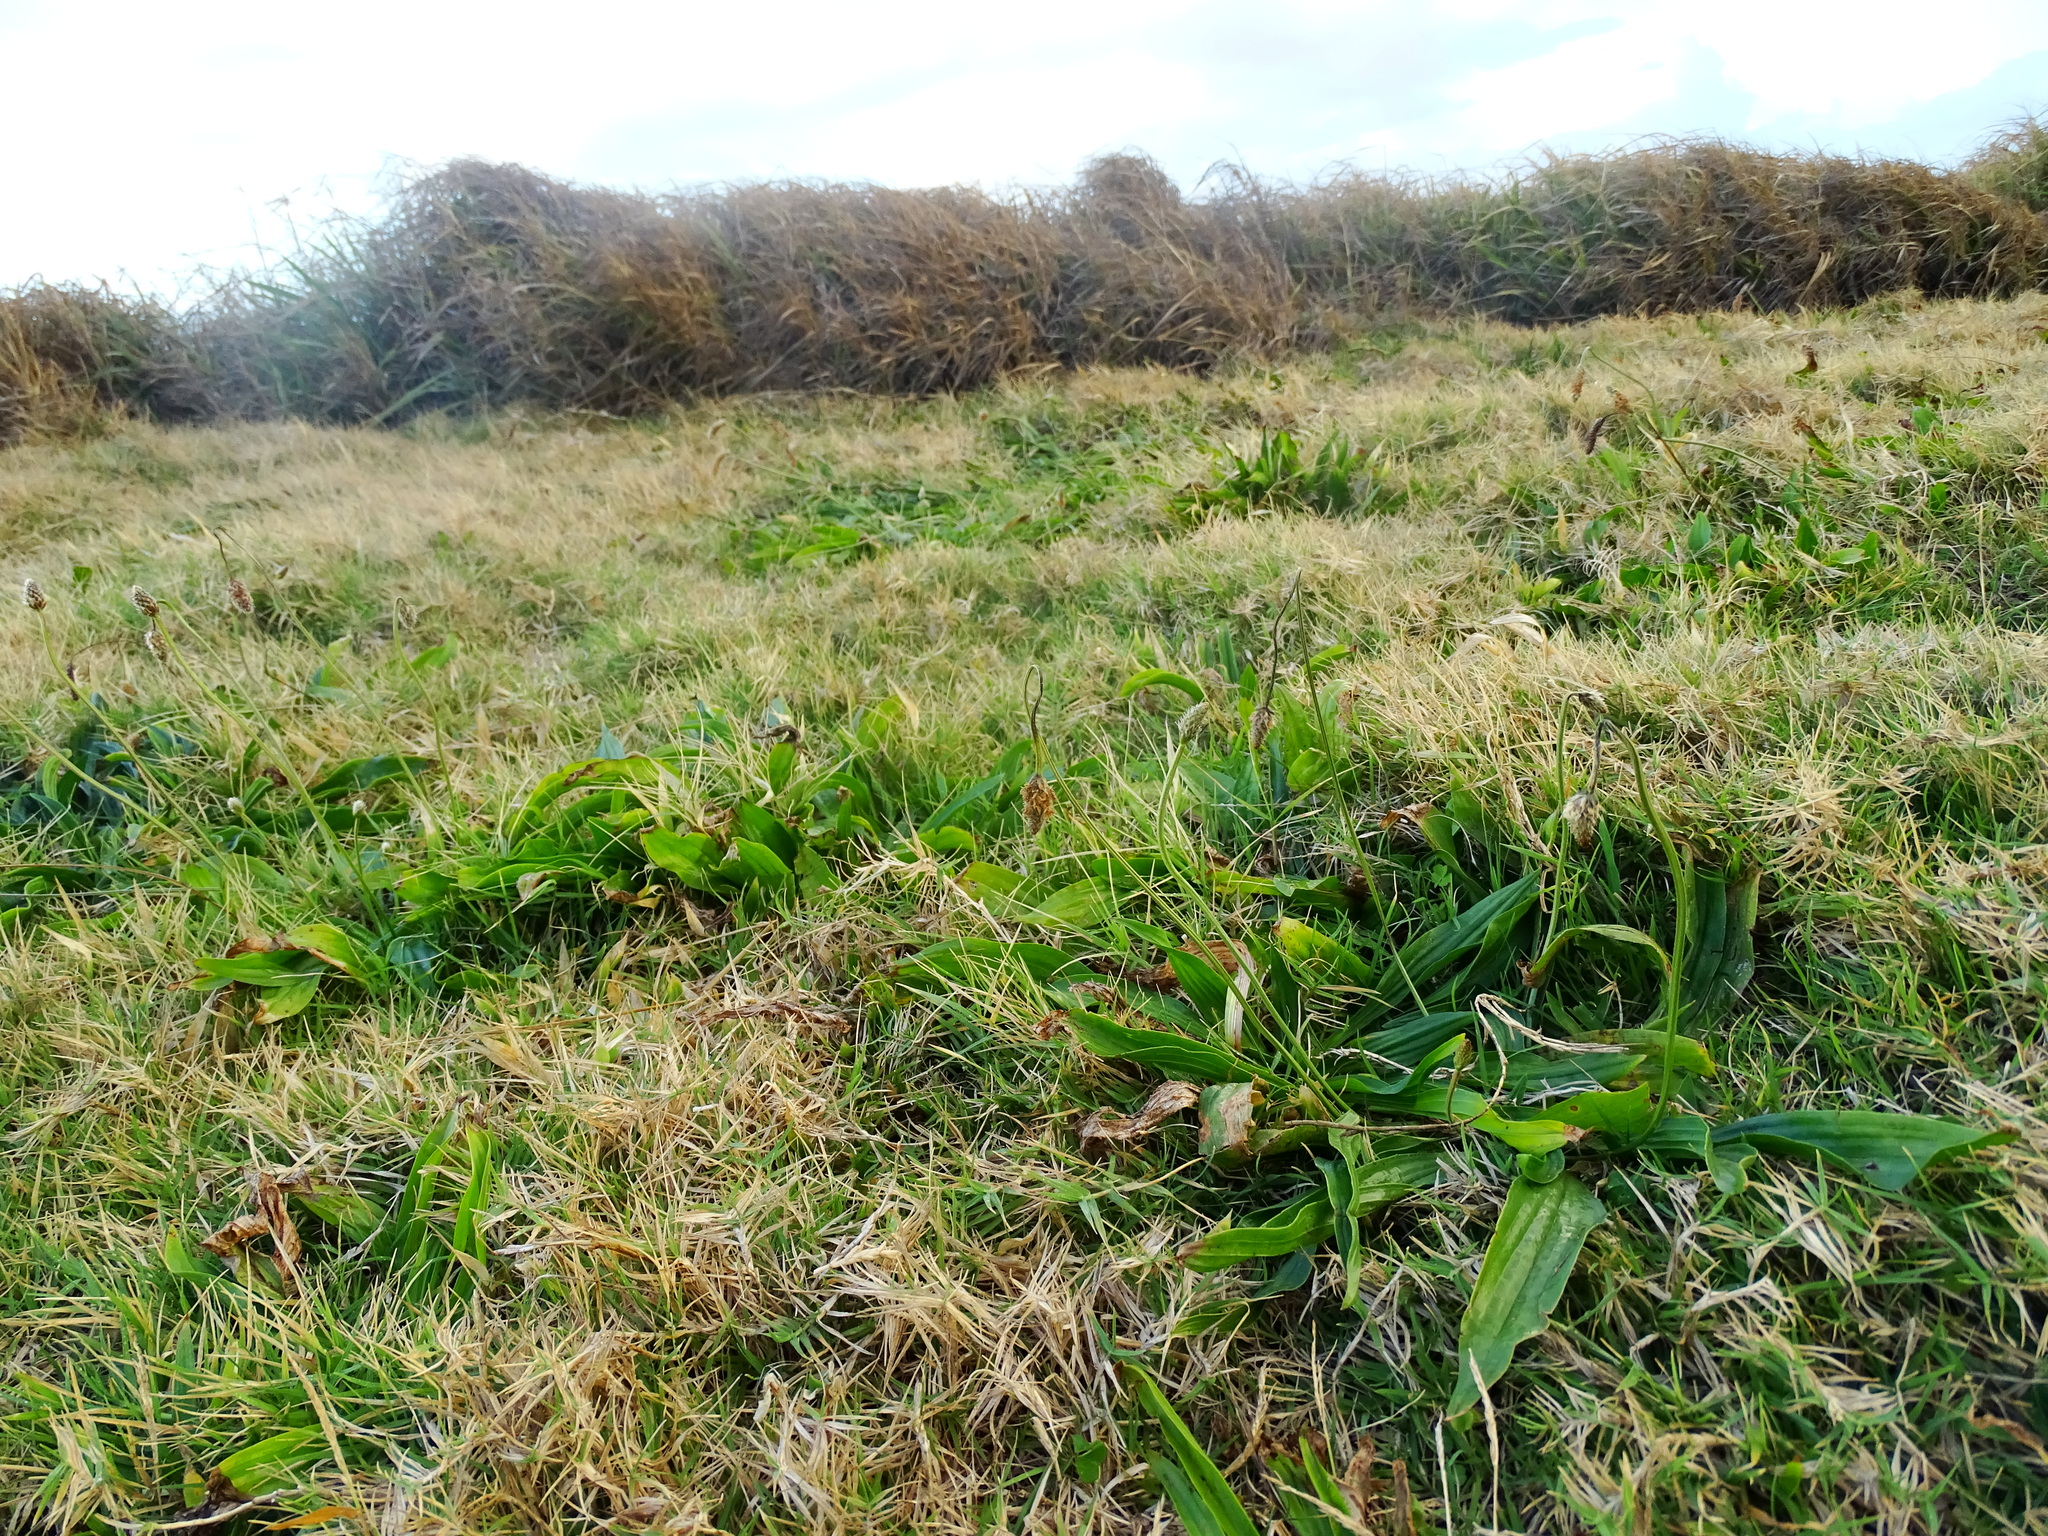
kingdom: Plantae
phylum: Tracheophyta
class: Magnoliopsida
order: Lamiales
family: Plantaginaceae
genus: Plantago
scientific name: Plantago lanceolata
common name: Ribwort plantain
